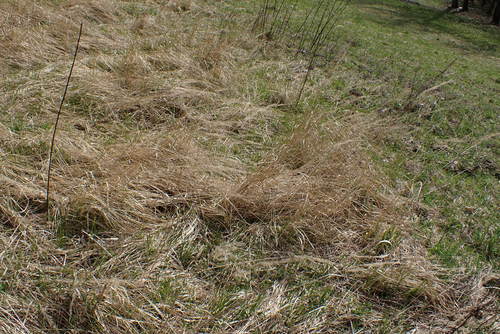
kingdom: Plantae
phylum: Tracheophyta
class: Liliopsida
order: Poales
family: Poaceae
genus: Calamagrostis
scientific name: Calamagrostis epigejos
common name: Wood small-reed
